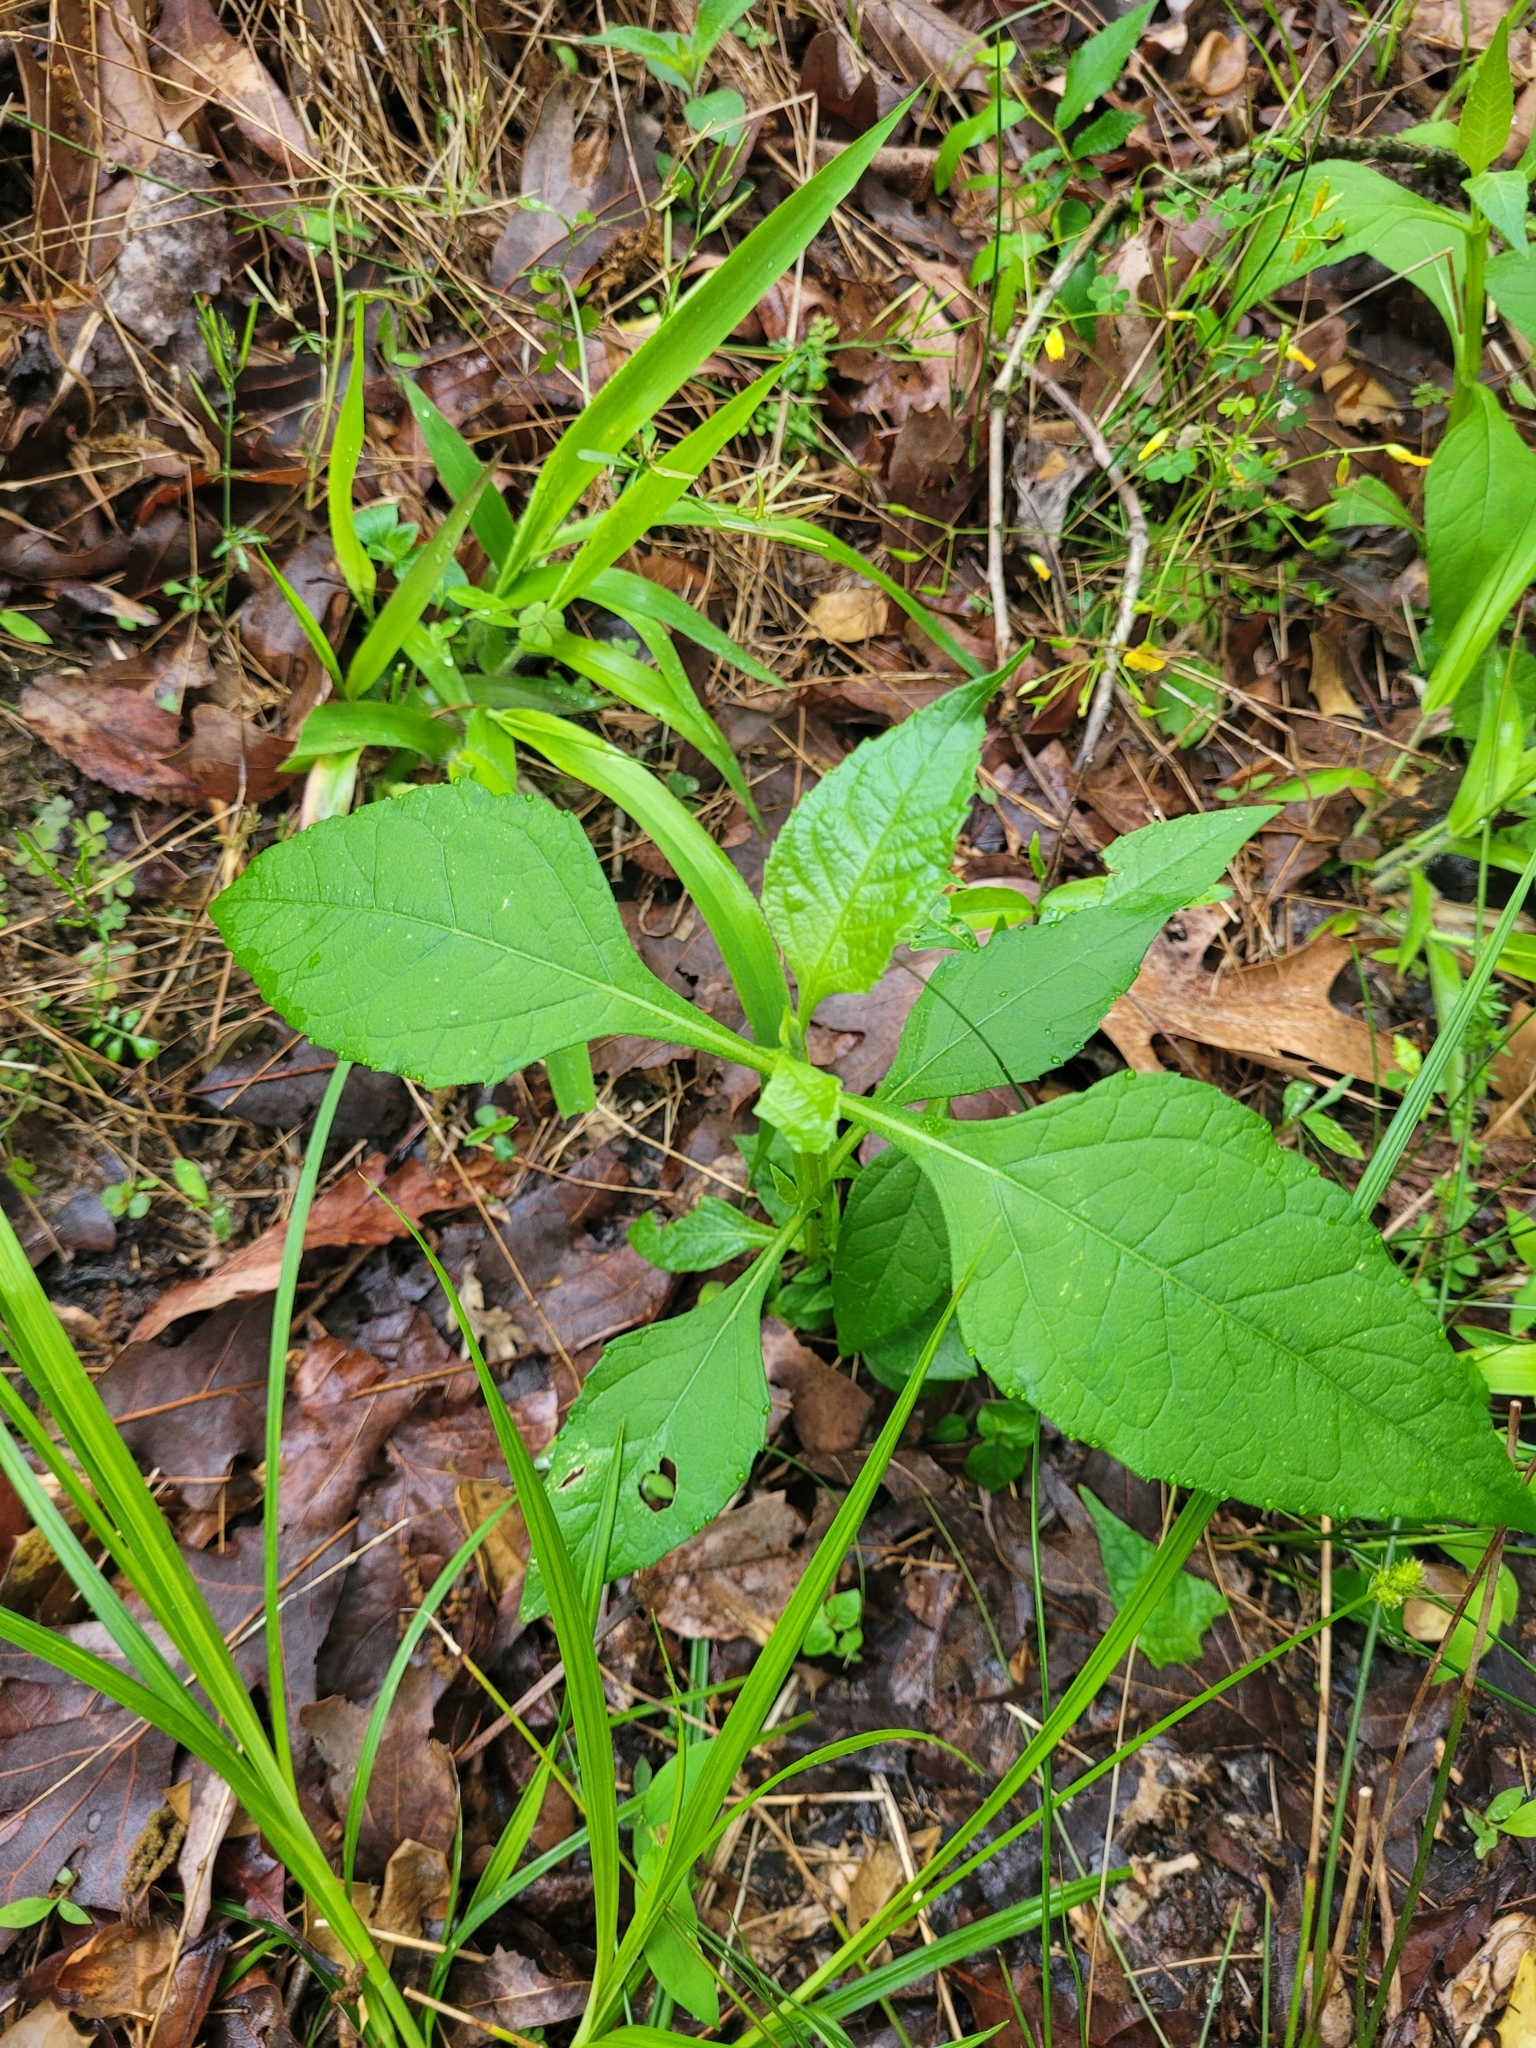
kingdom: Plantae
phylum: Tracheophyta
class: Magnoliopsida
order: Asterales
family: Asteraceae
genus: Verbesina
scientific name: Verbesina occidentalis
